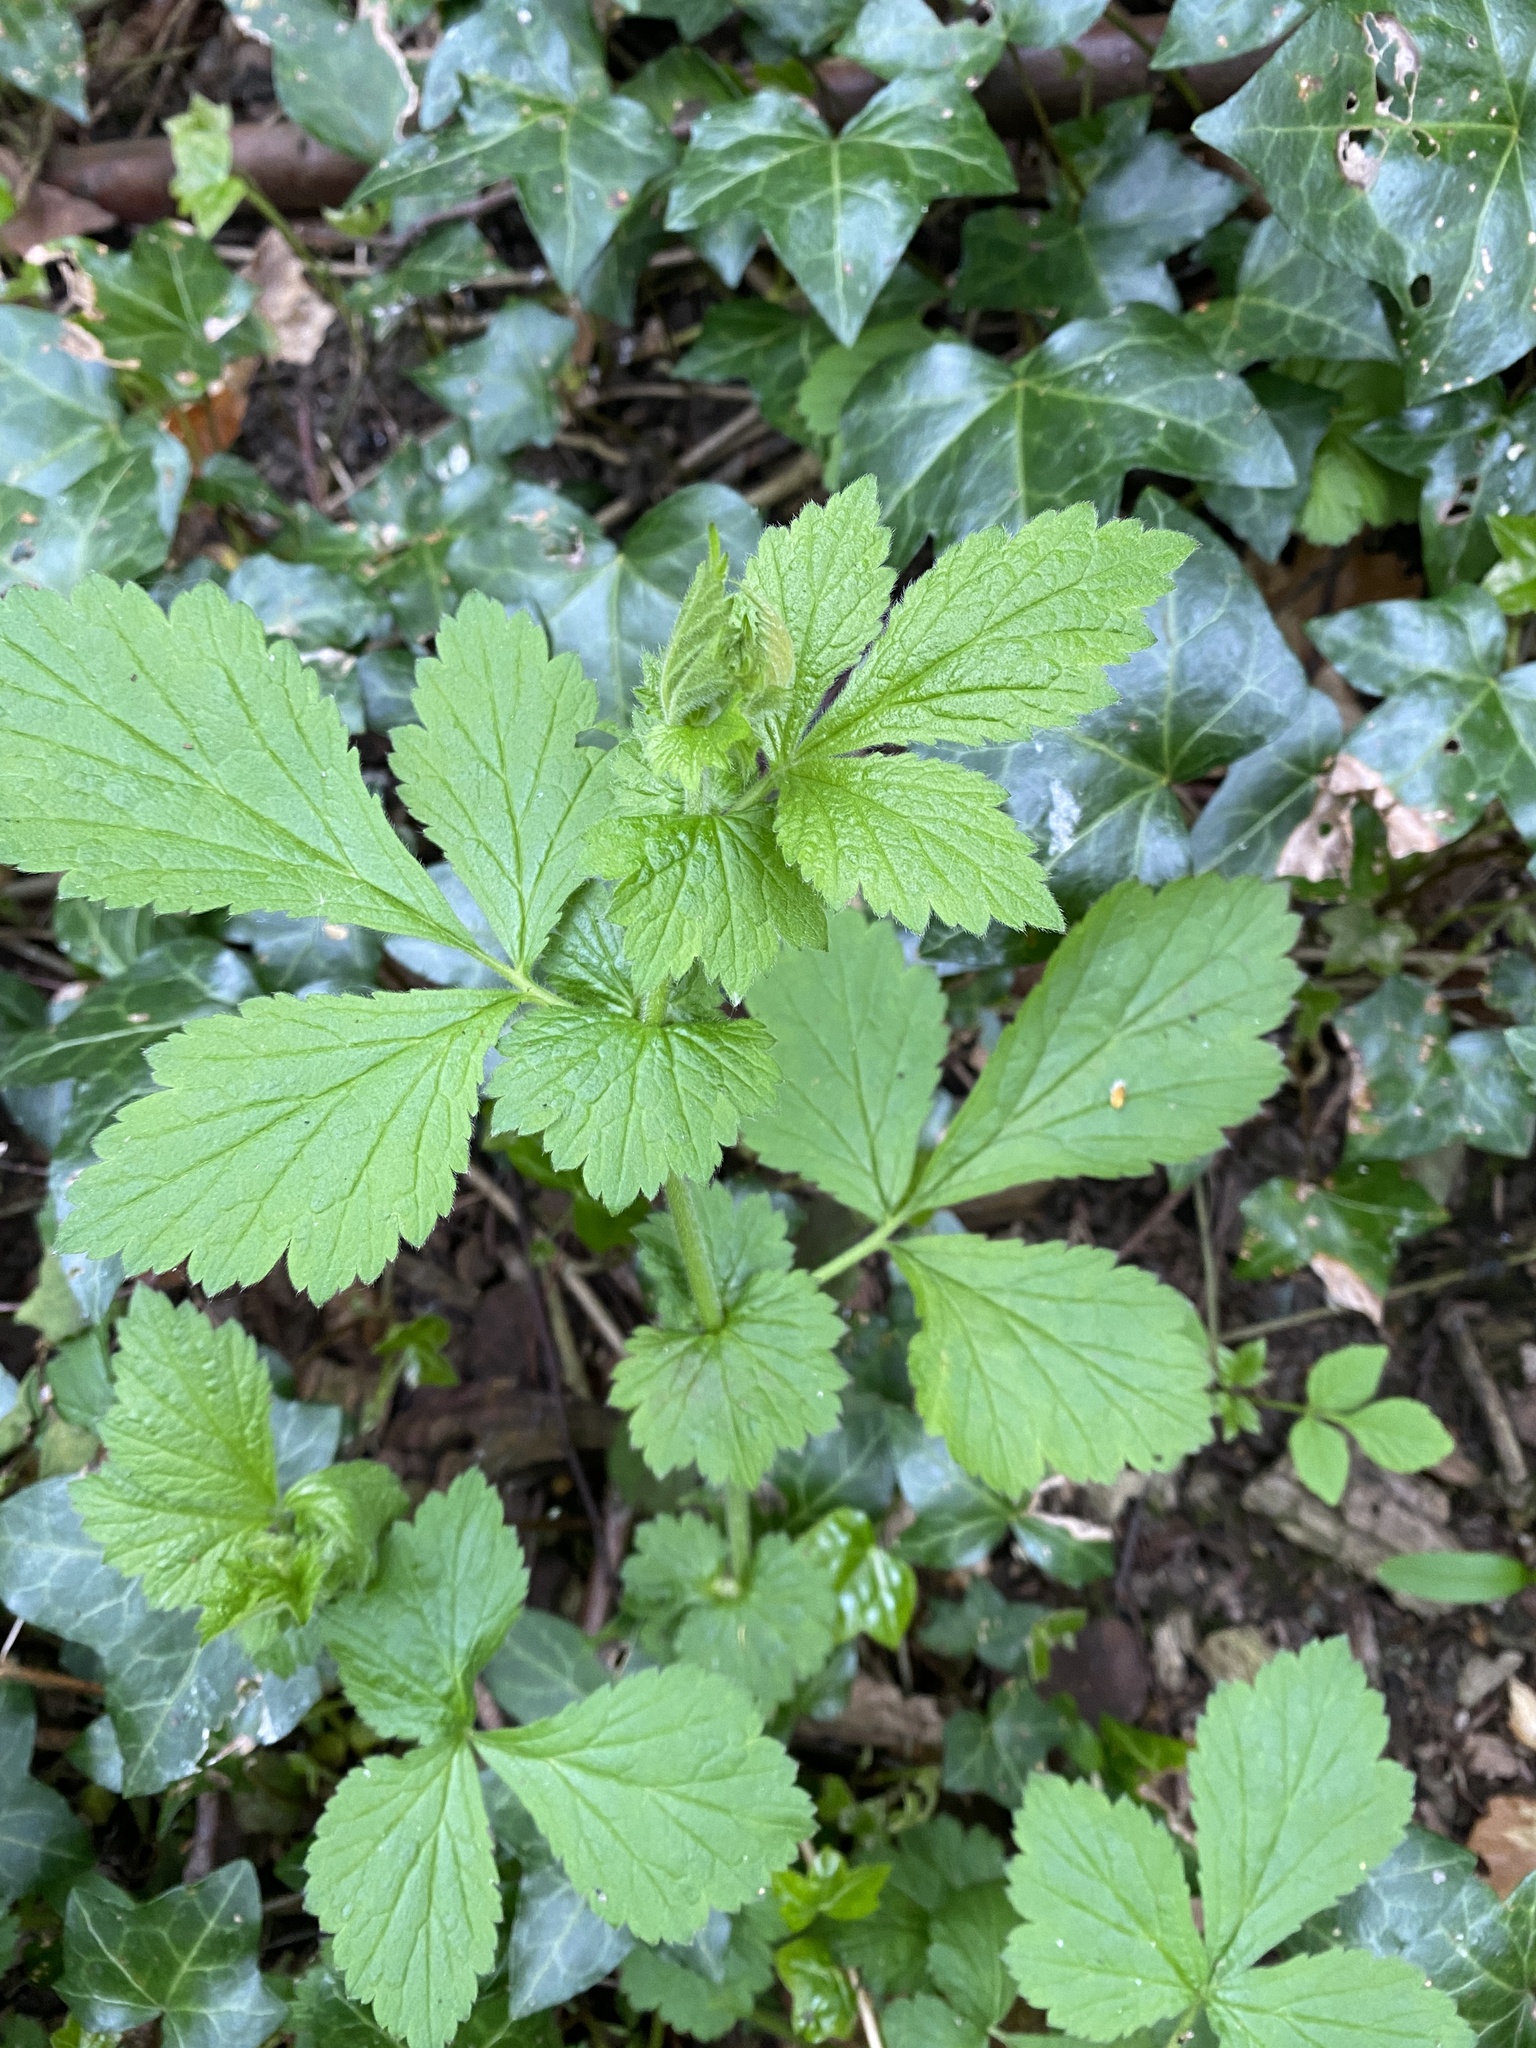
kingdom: Plantae
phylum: Tracheophyta
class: Magnoliopsida
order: Rosales
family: Rosaceae
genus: Geum
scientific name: Geum urbanum
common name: Wood avens
